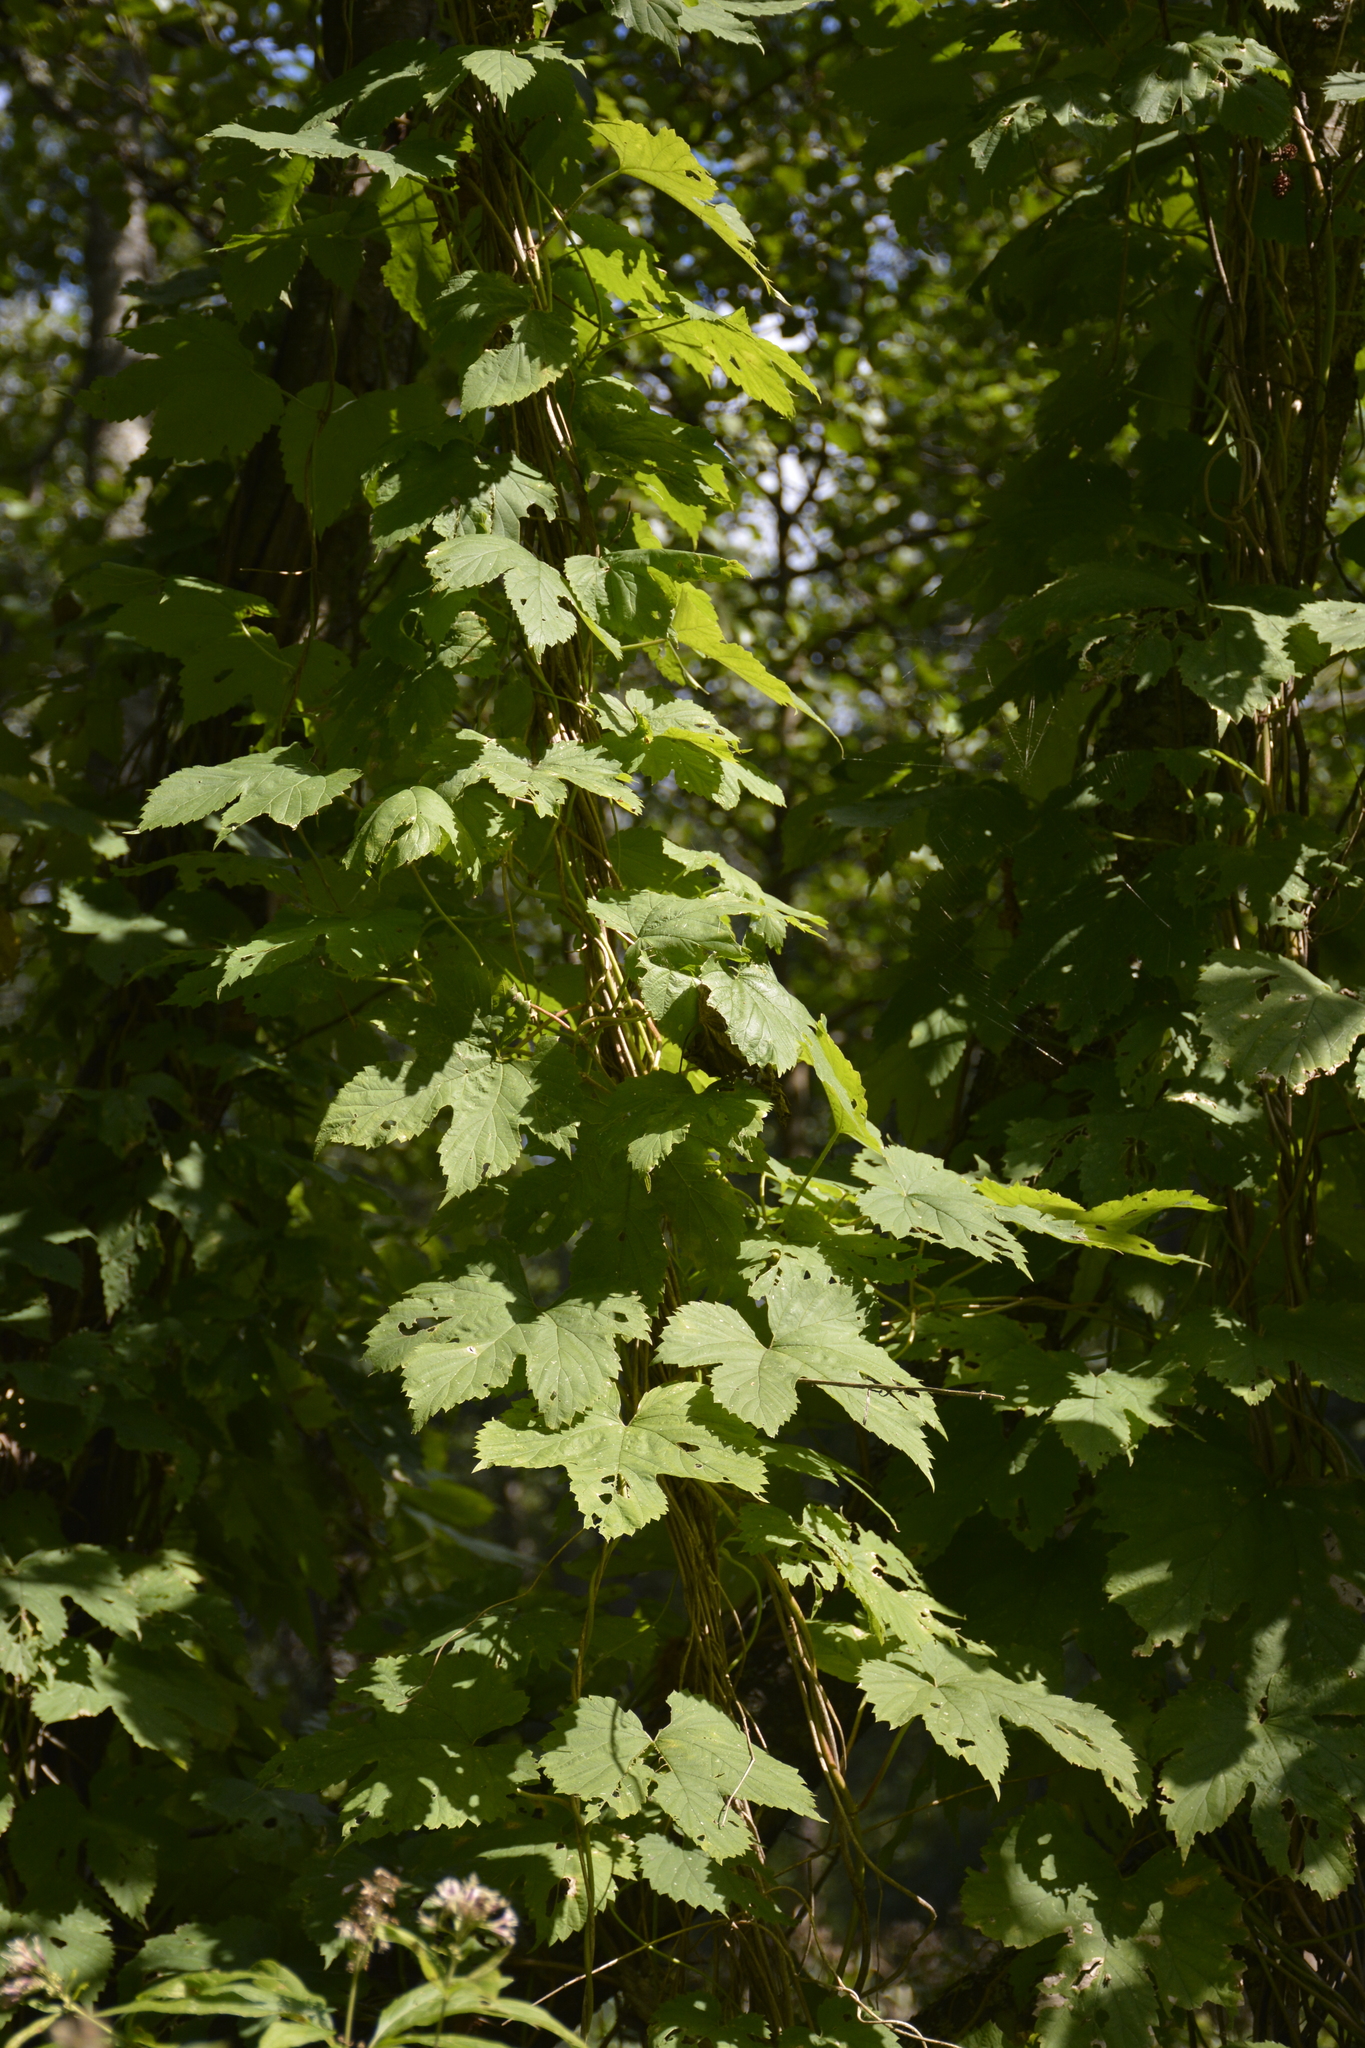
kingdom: Plantae
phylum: Tracheophyta
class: Magnoliopsida
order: Rosales
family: Cannabaceae
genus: Humulus
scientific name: Humulus lupulus
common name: Hop
